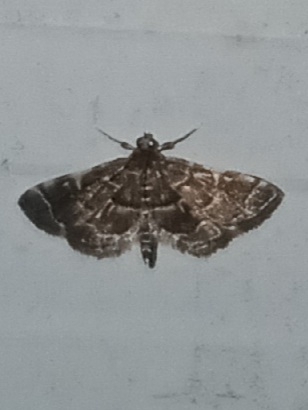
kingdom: Animalia
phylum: Arthropoda
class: Insecta
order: Lepidoptera
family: Crambidae
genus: Anageshna
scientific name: Anageshna primordialis
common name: Yellow-spotted webworm moth
